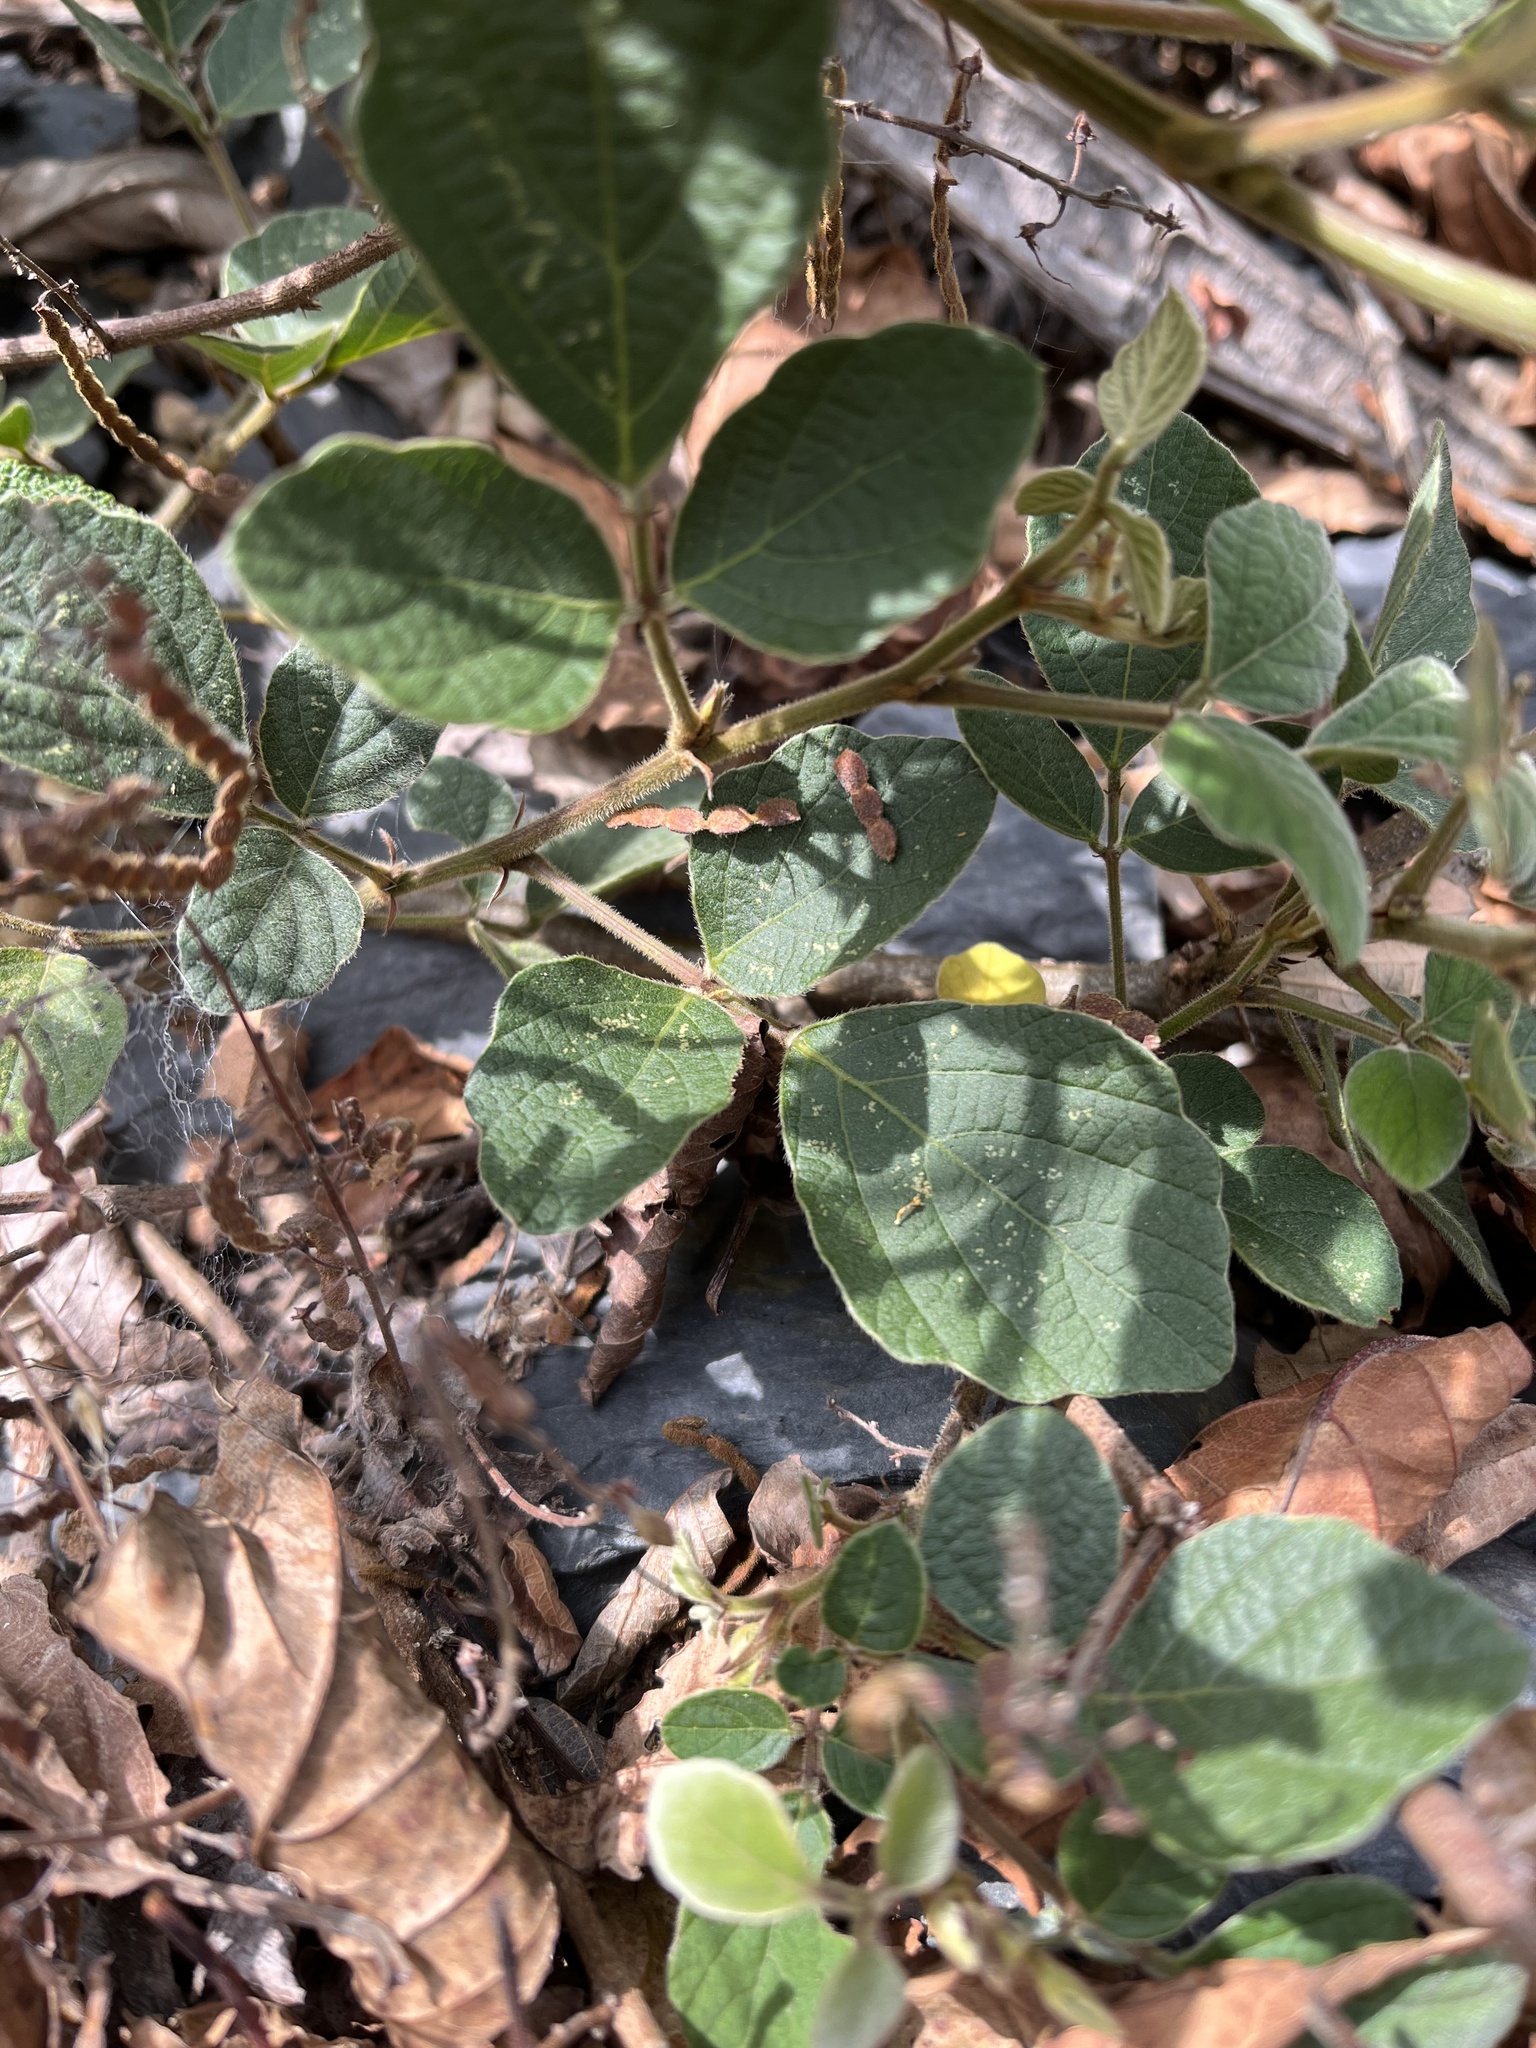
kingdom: Plantae
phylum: Tracheophyta
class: Magnoliopsida
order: Fabales
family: Fabaceae
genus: Puhuaea
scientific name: Puhuaea sequax
